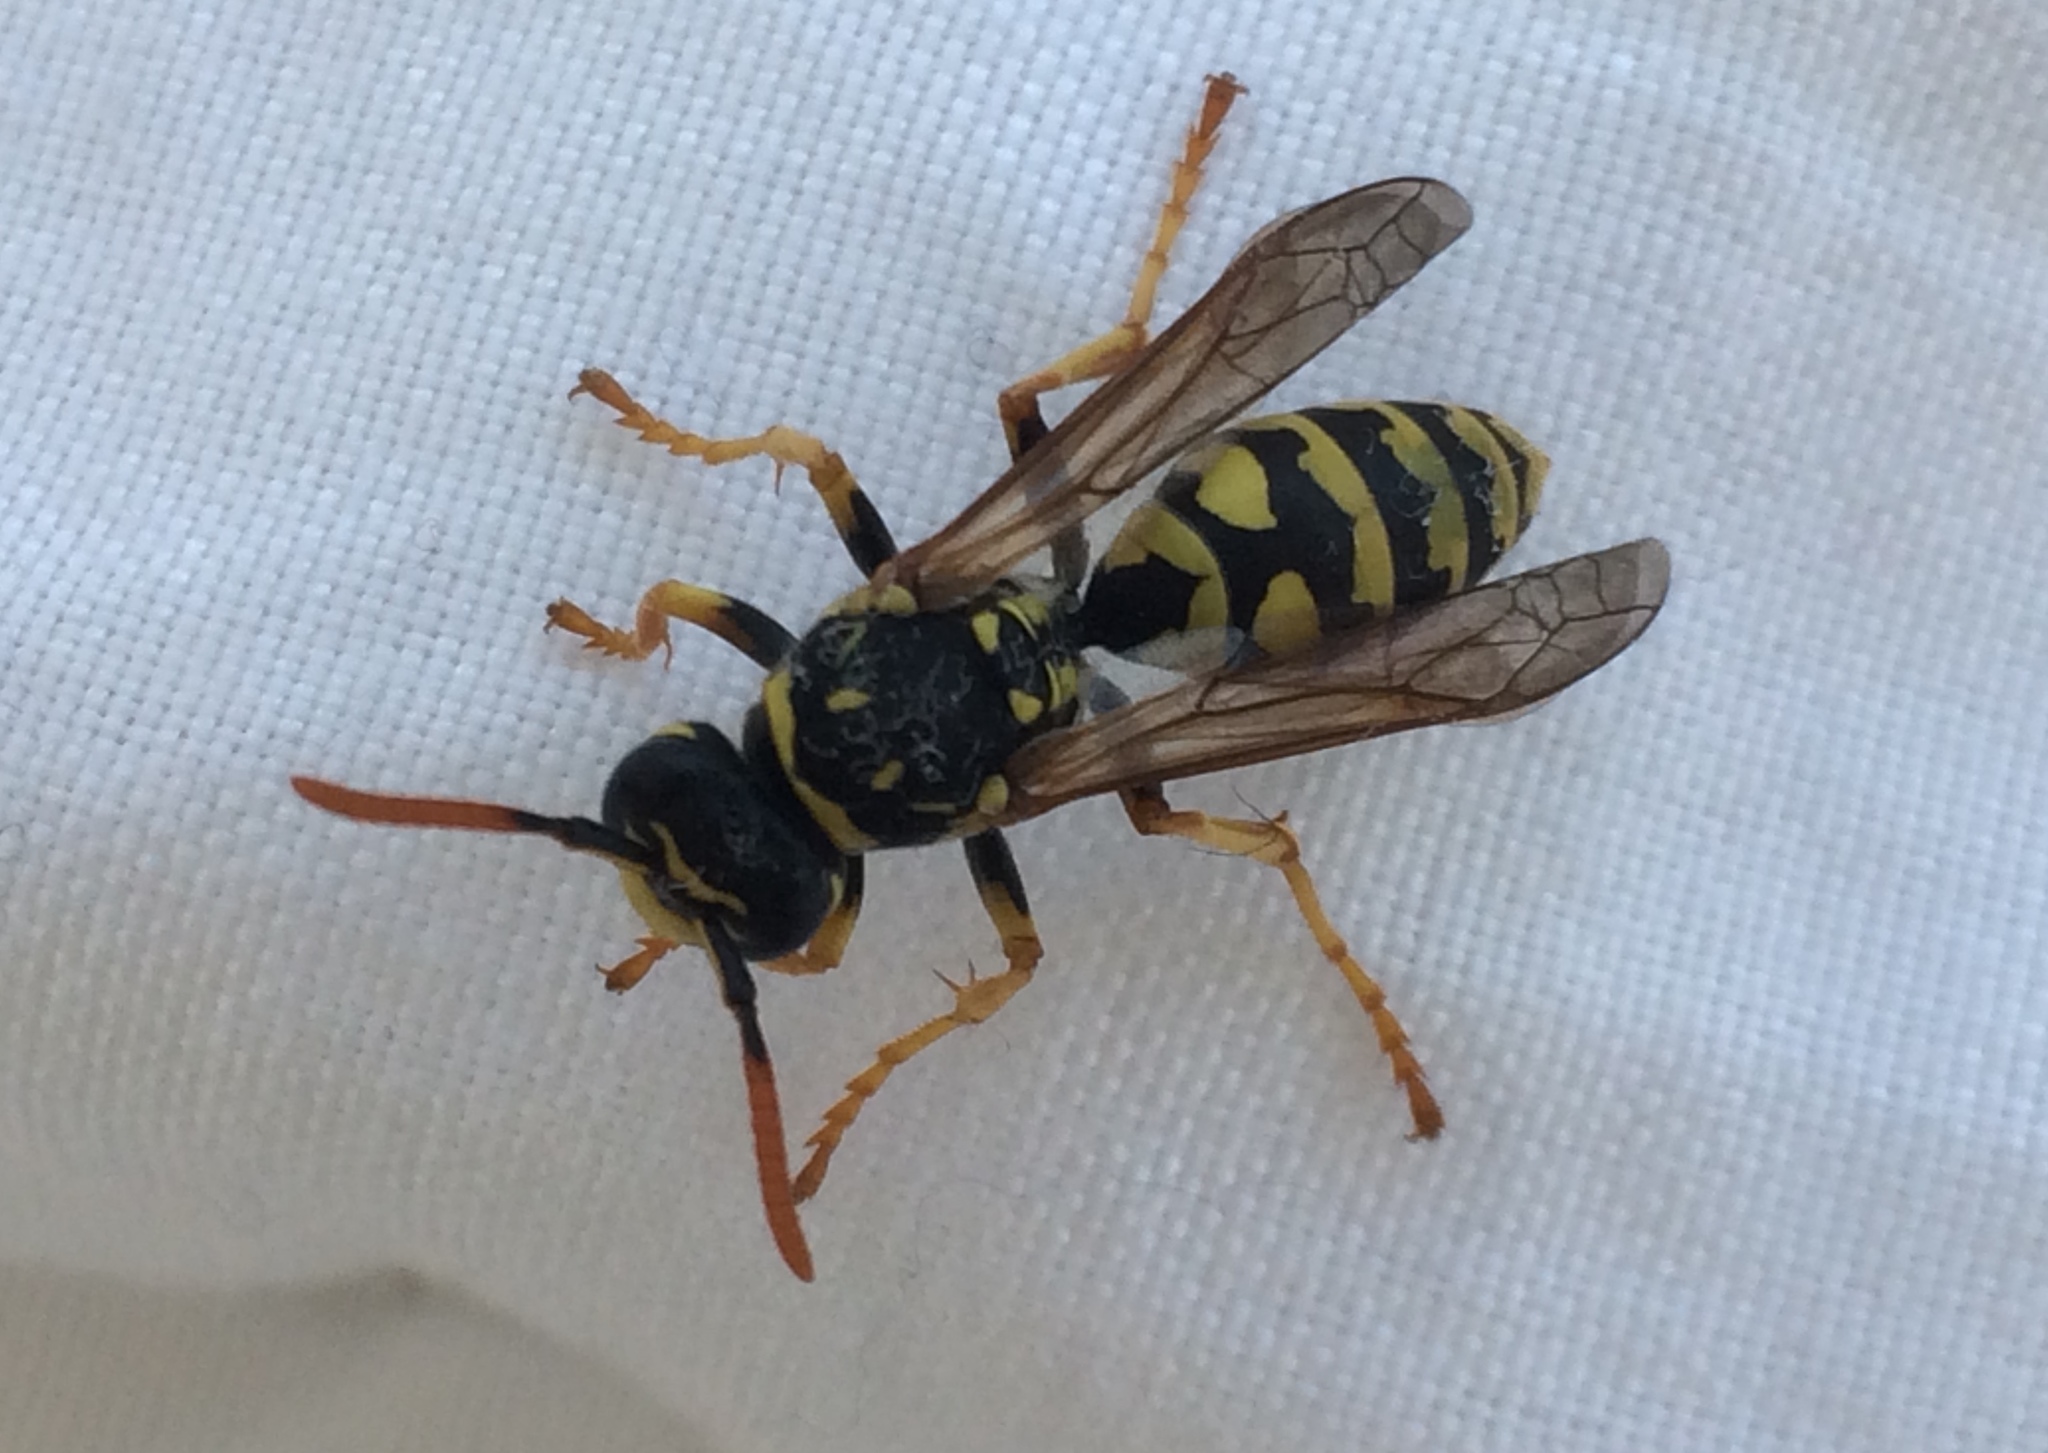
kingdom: Animalia
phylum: Arthropoda
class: Insecta
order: Hymenoptera
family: Eumenidae
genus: Polistes
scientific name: Polistes dominula
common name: Paper wasp
